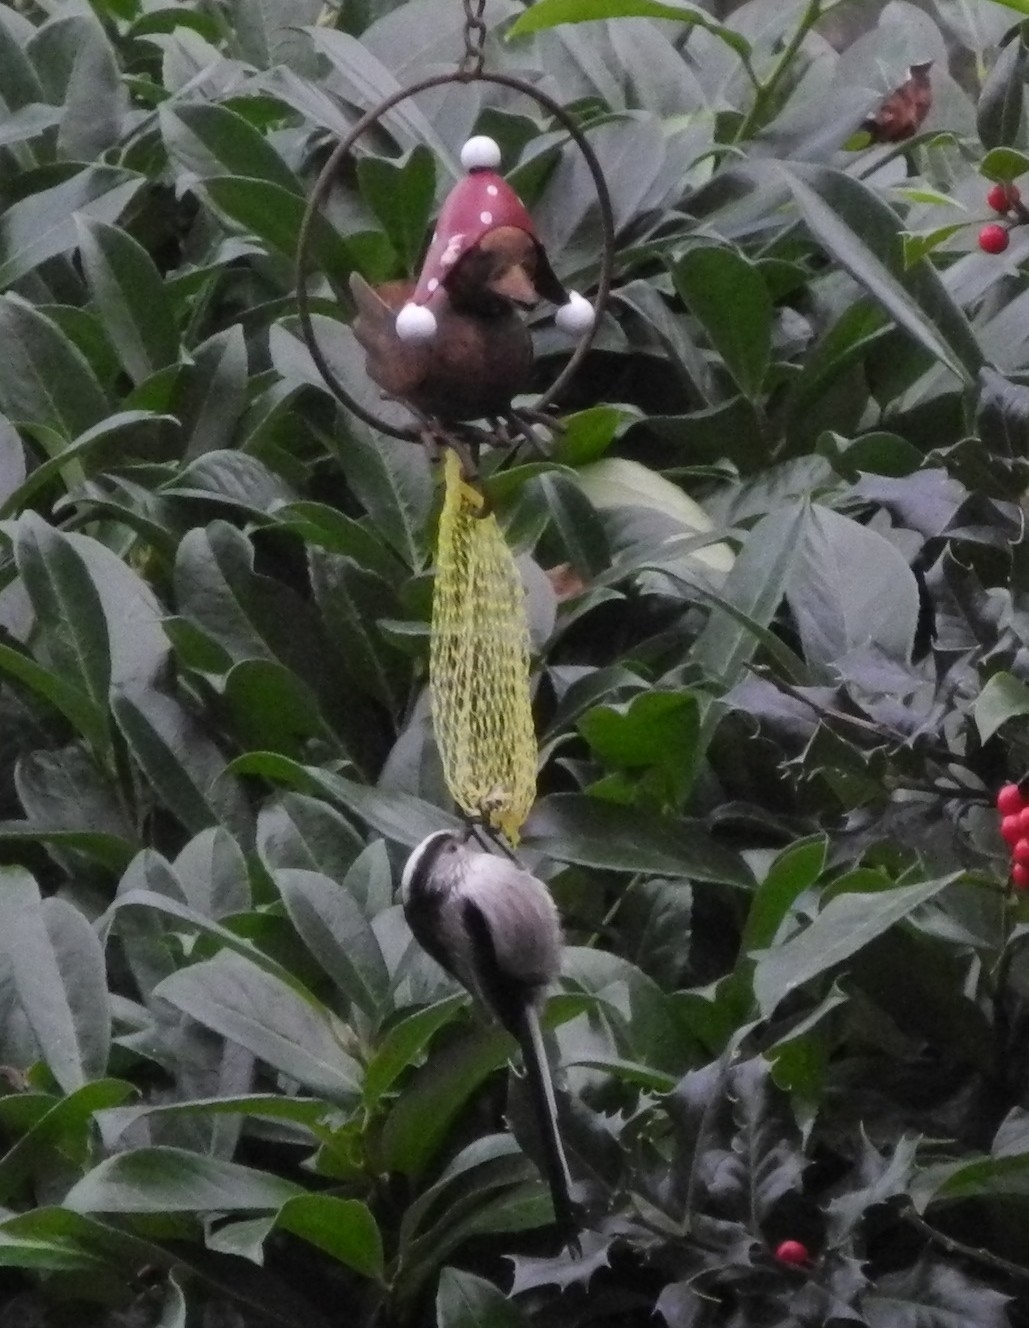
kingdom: Animalia
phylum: Chordata
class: Aves
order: Passeriformes
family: Aegithalidae
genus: Aegithalos
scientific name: Aegithalos caudatus
